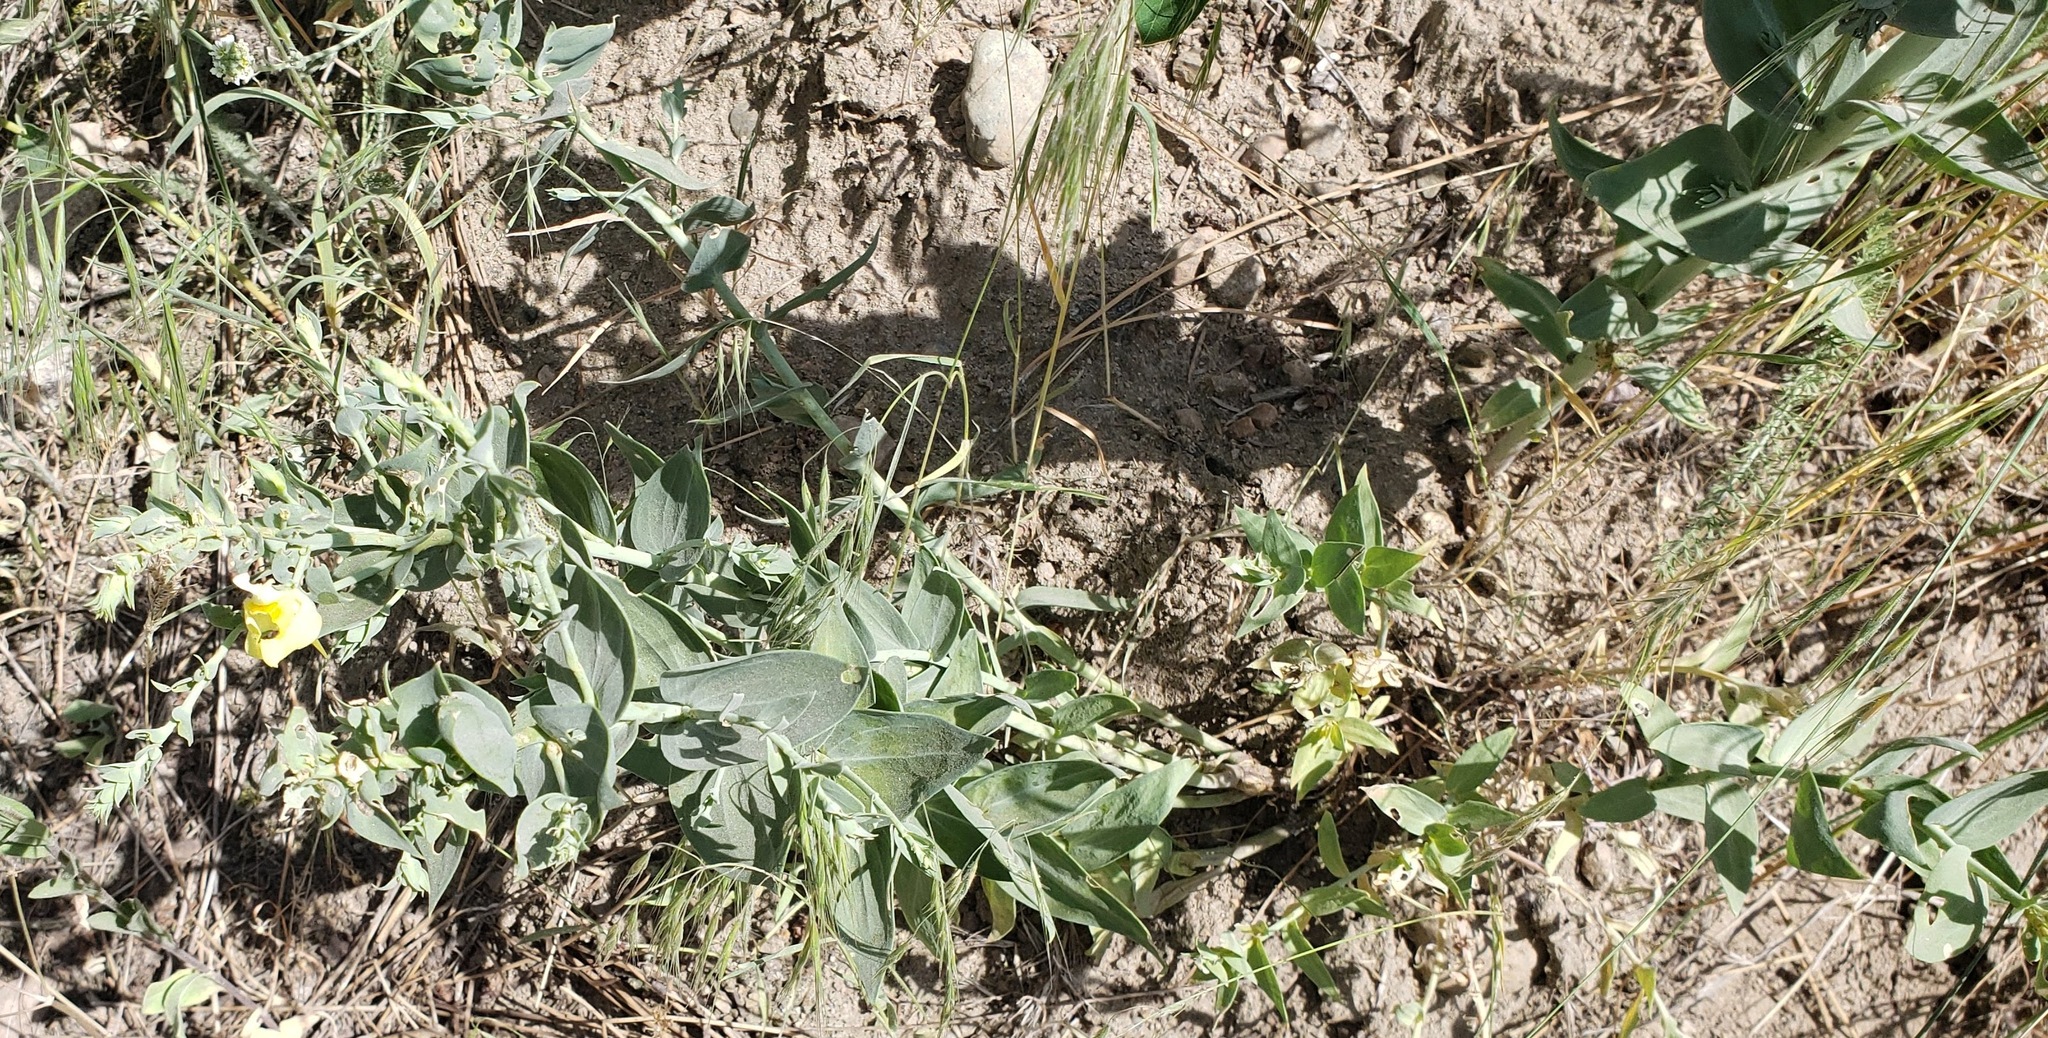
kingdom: Plantae
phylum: Tracheophyta
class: Magnoliopsida
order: Lamiales
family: Plantaginaceae
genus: Linaria
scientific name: Linaria dalmatica
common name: Dalmatian toadflax
